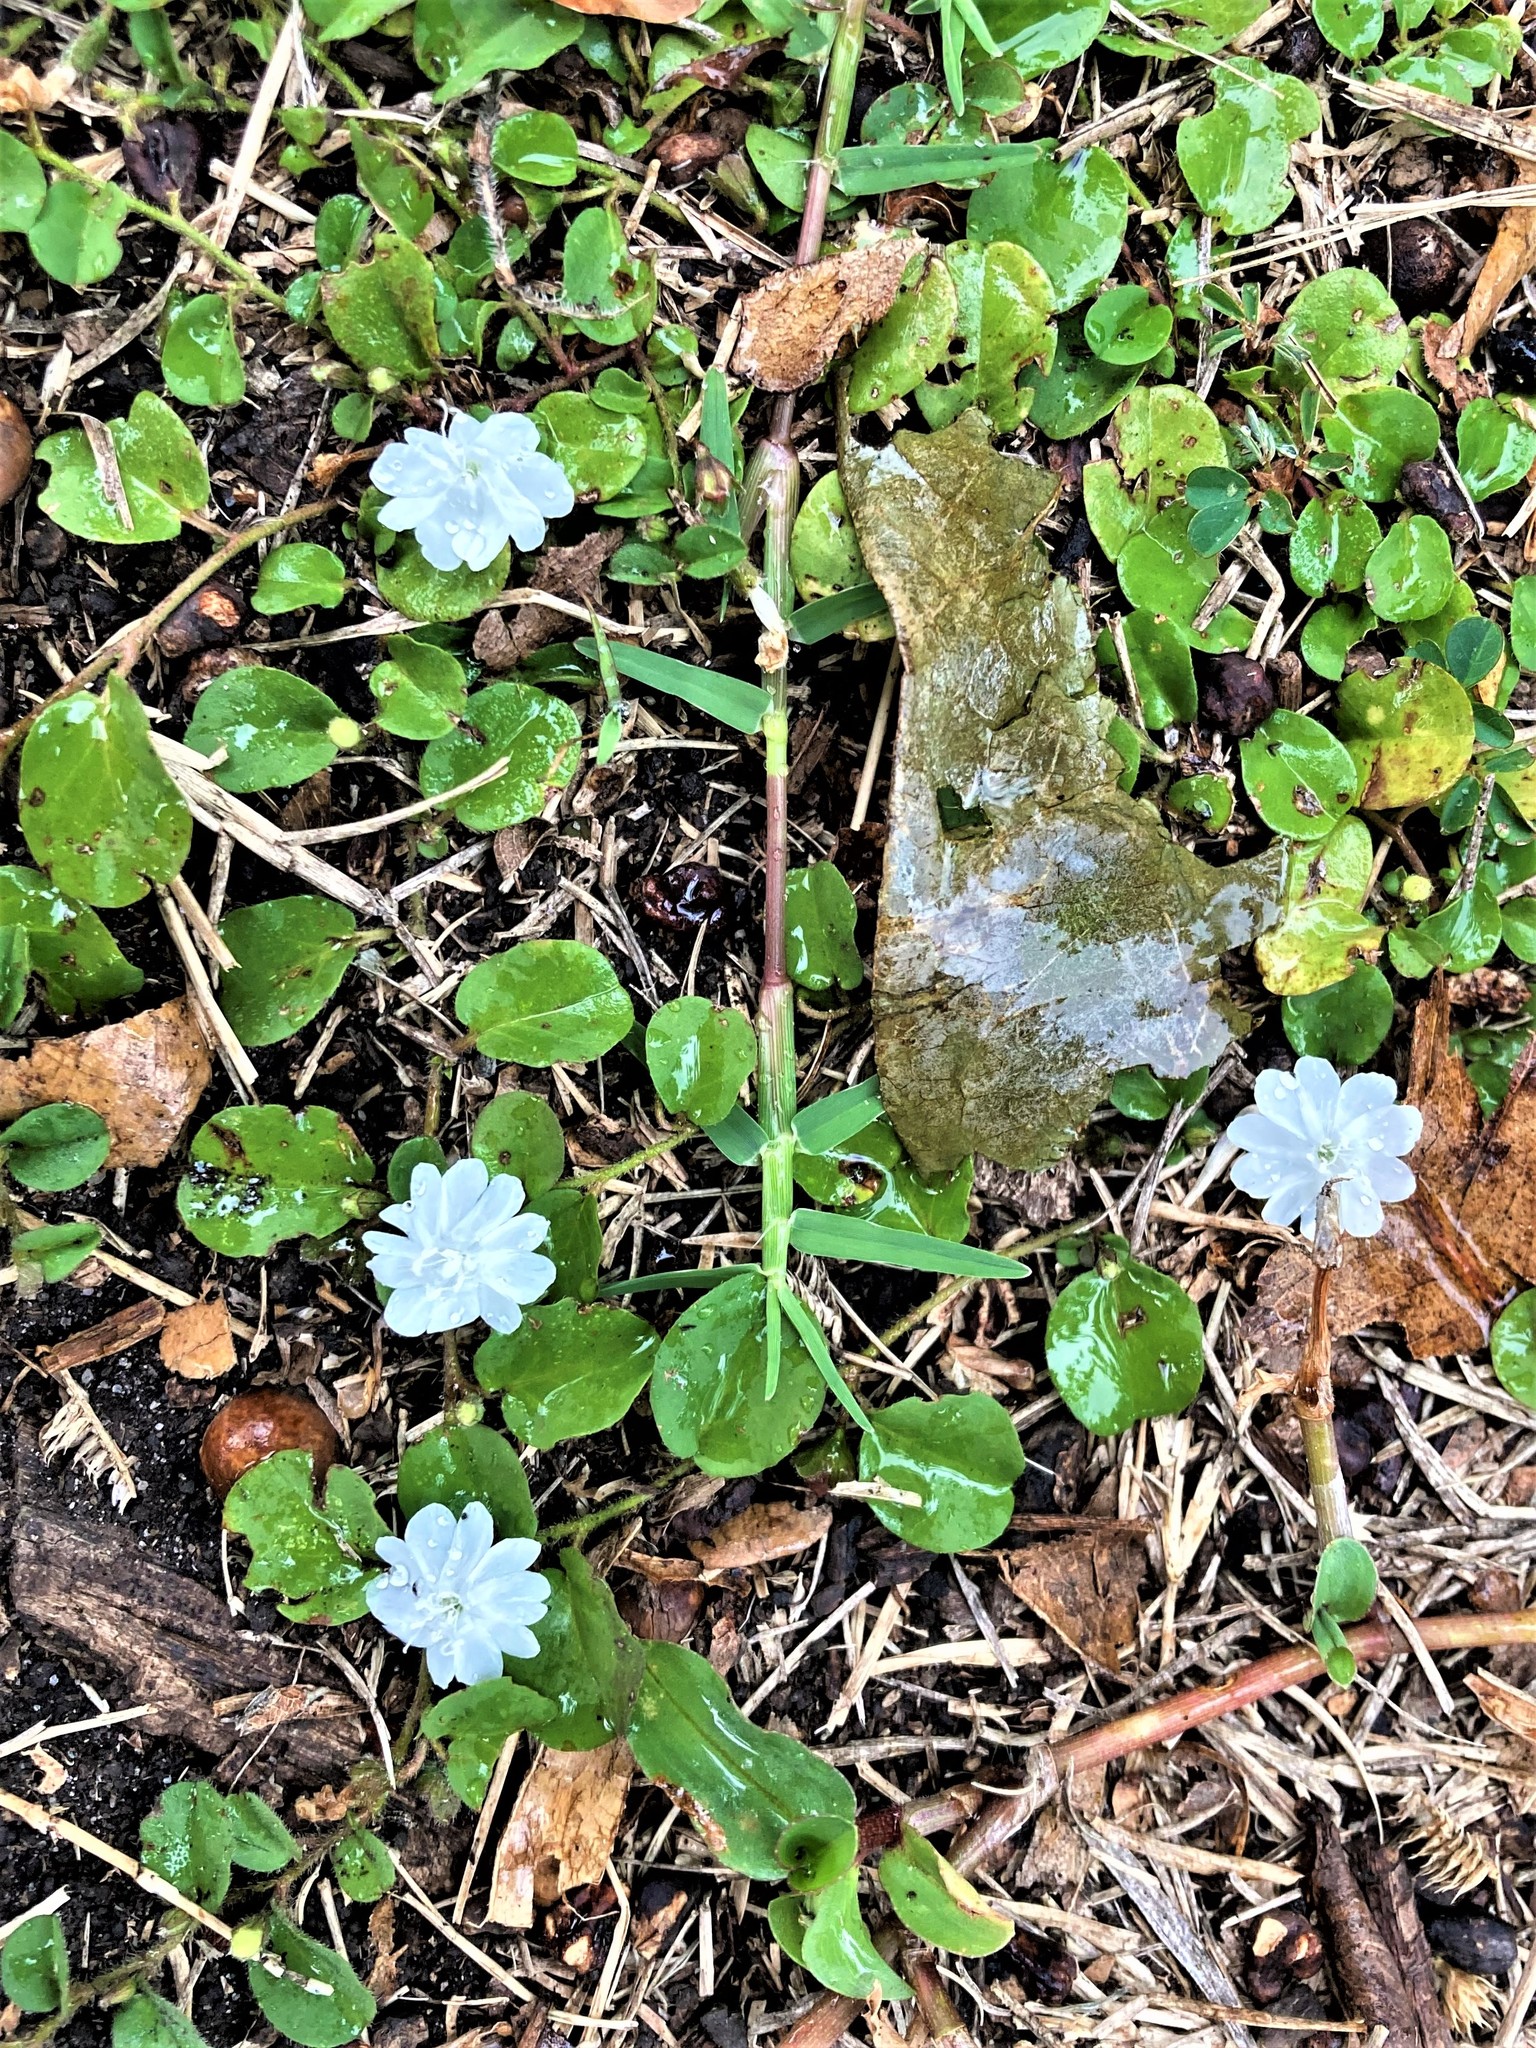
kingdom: Plantae
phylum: Tracheophyta
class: Magnoliopsida
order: Solanales
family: Convolvulaceae
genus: Evolvulus
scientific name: Evolvulus nummularius
